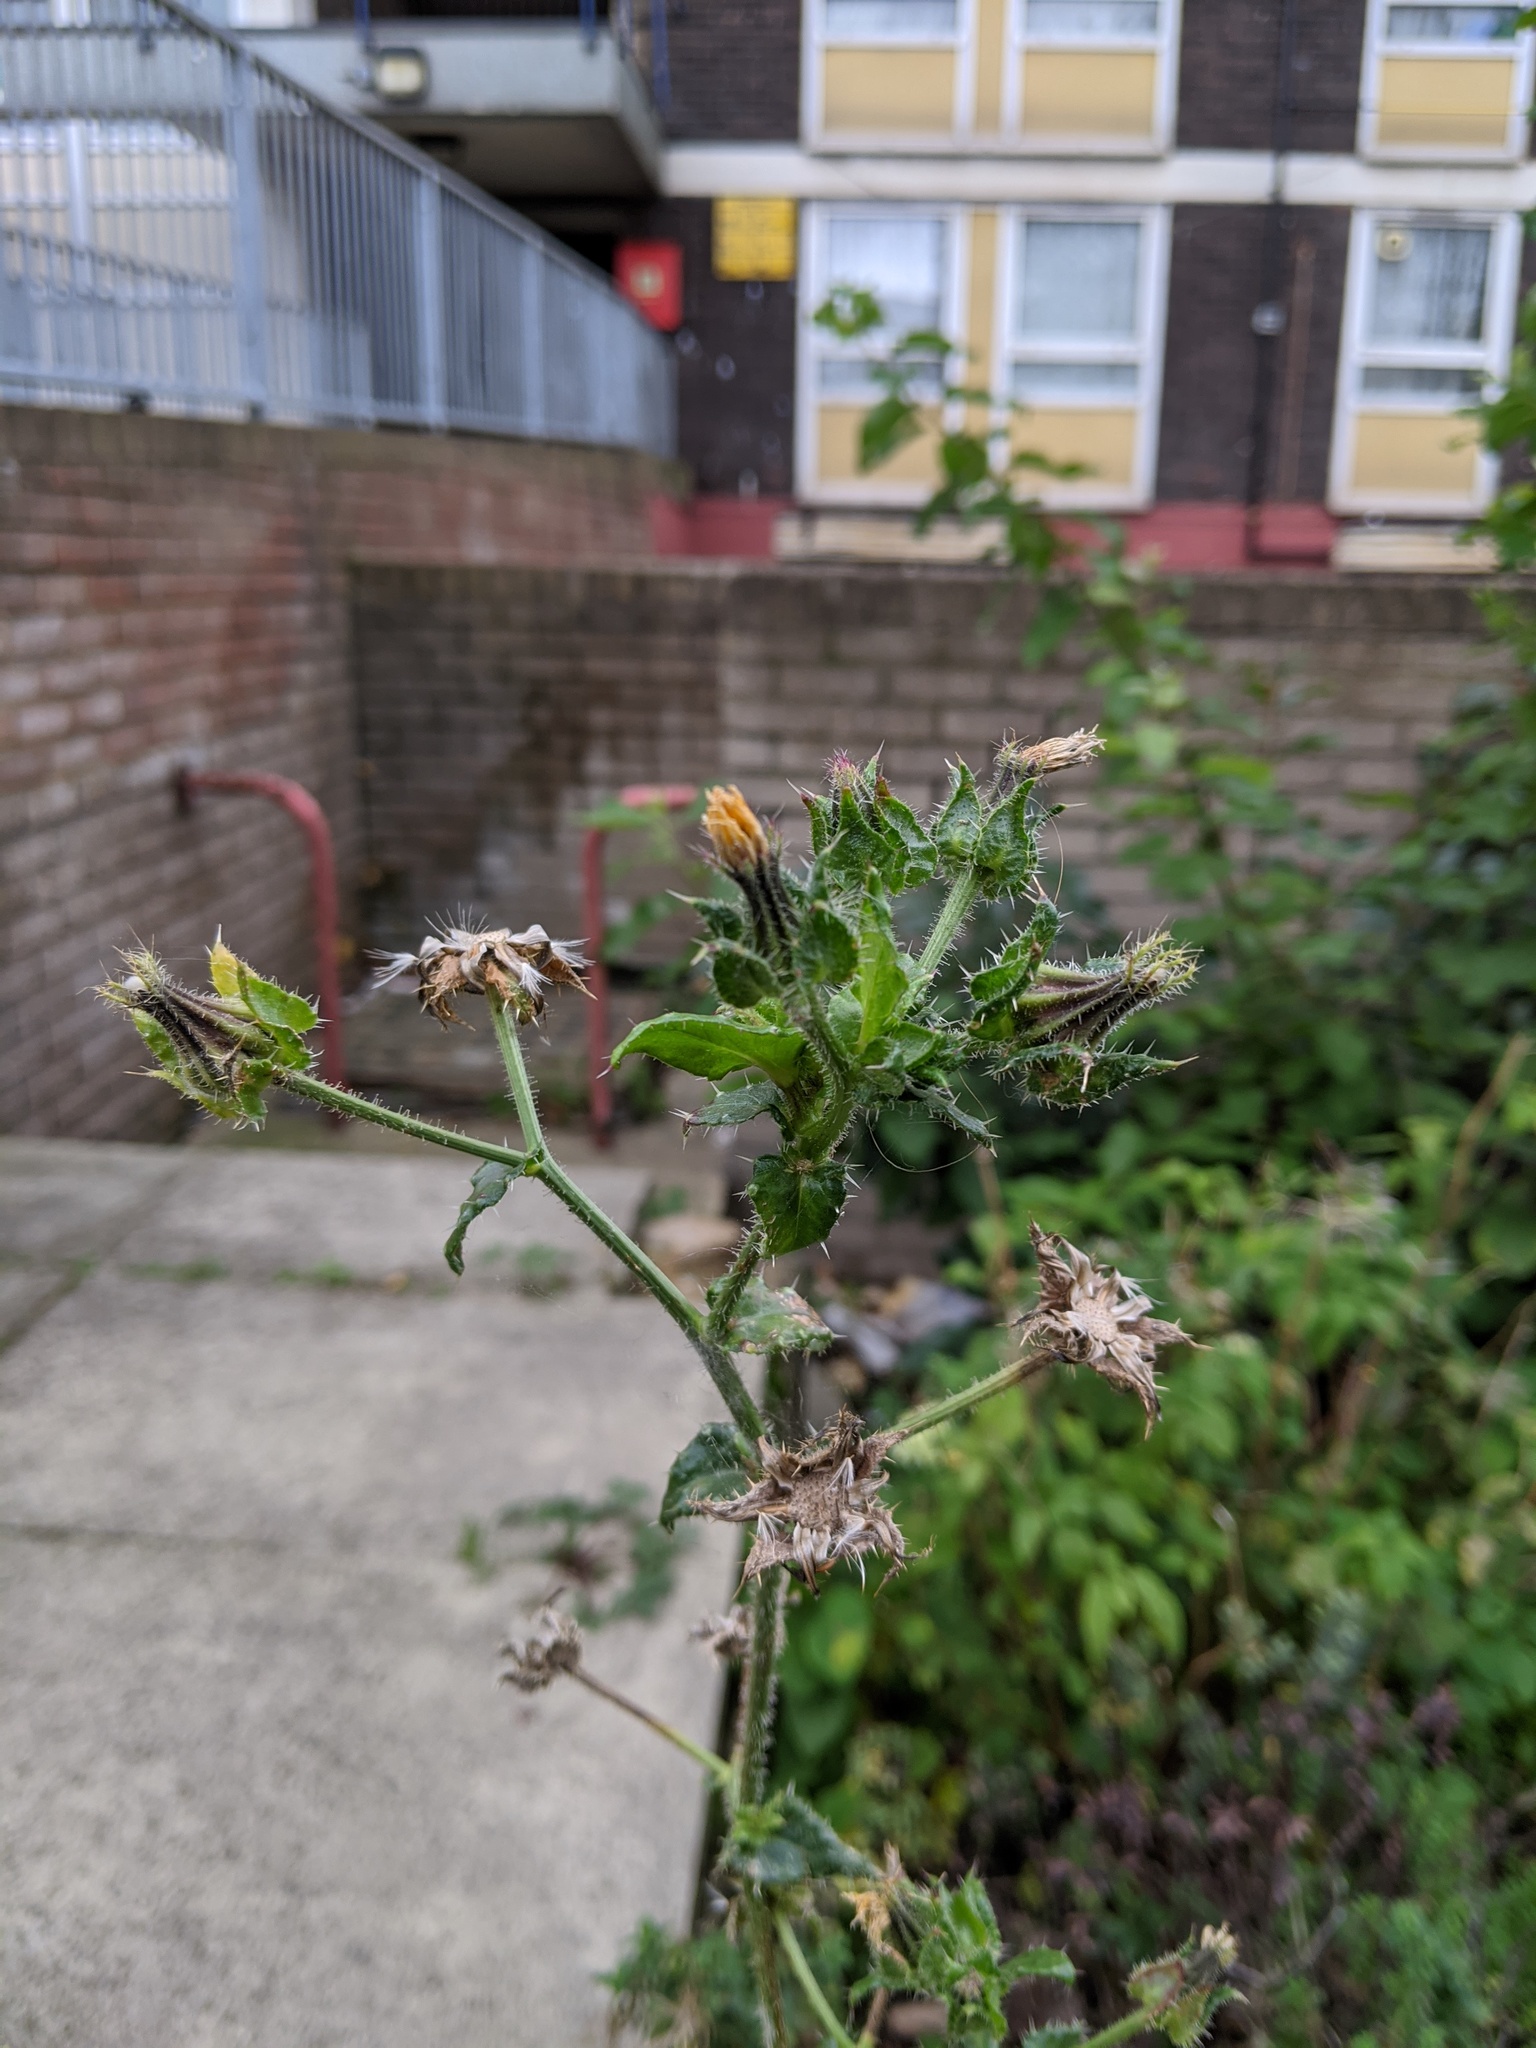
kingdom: Plantae
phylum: Tracheophyta
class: Magnoliopsida
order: Asterales
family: Asteraceae
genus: Helminthotheca
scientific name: Helminthotheca echioides
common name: Ox-tongue
